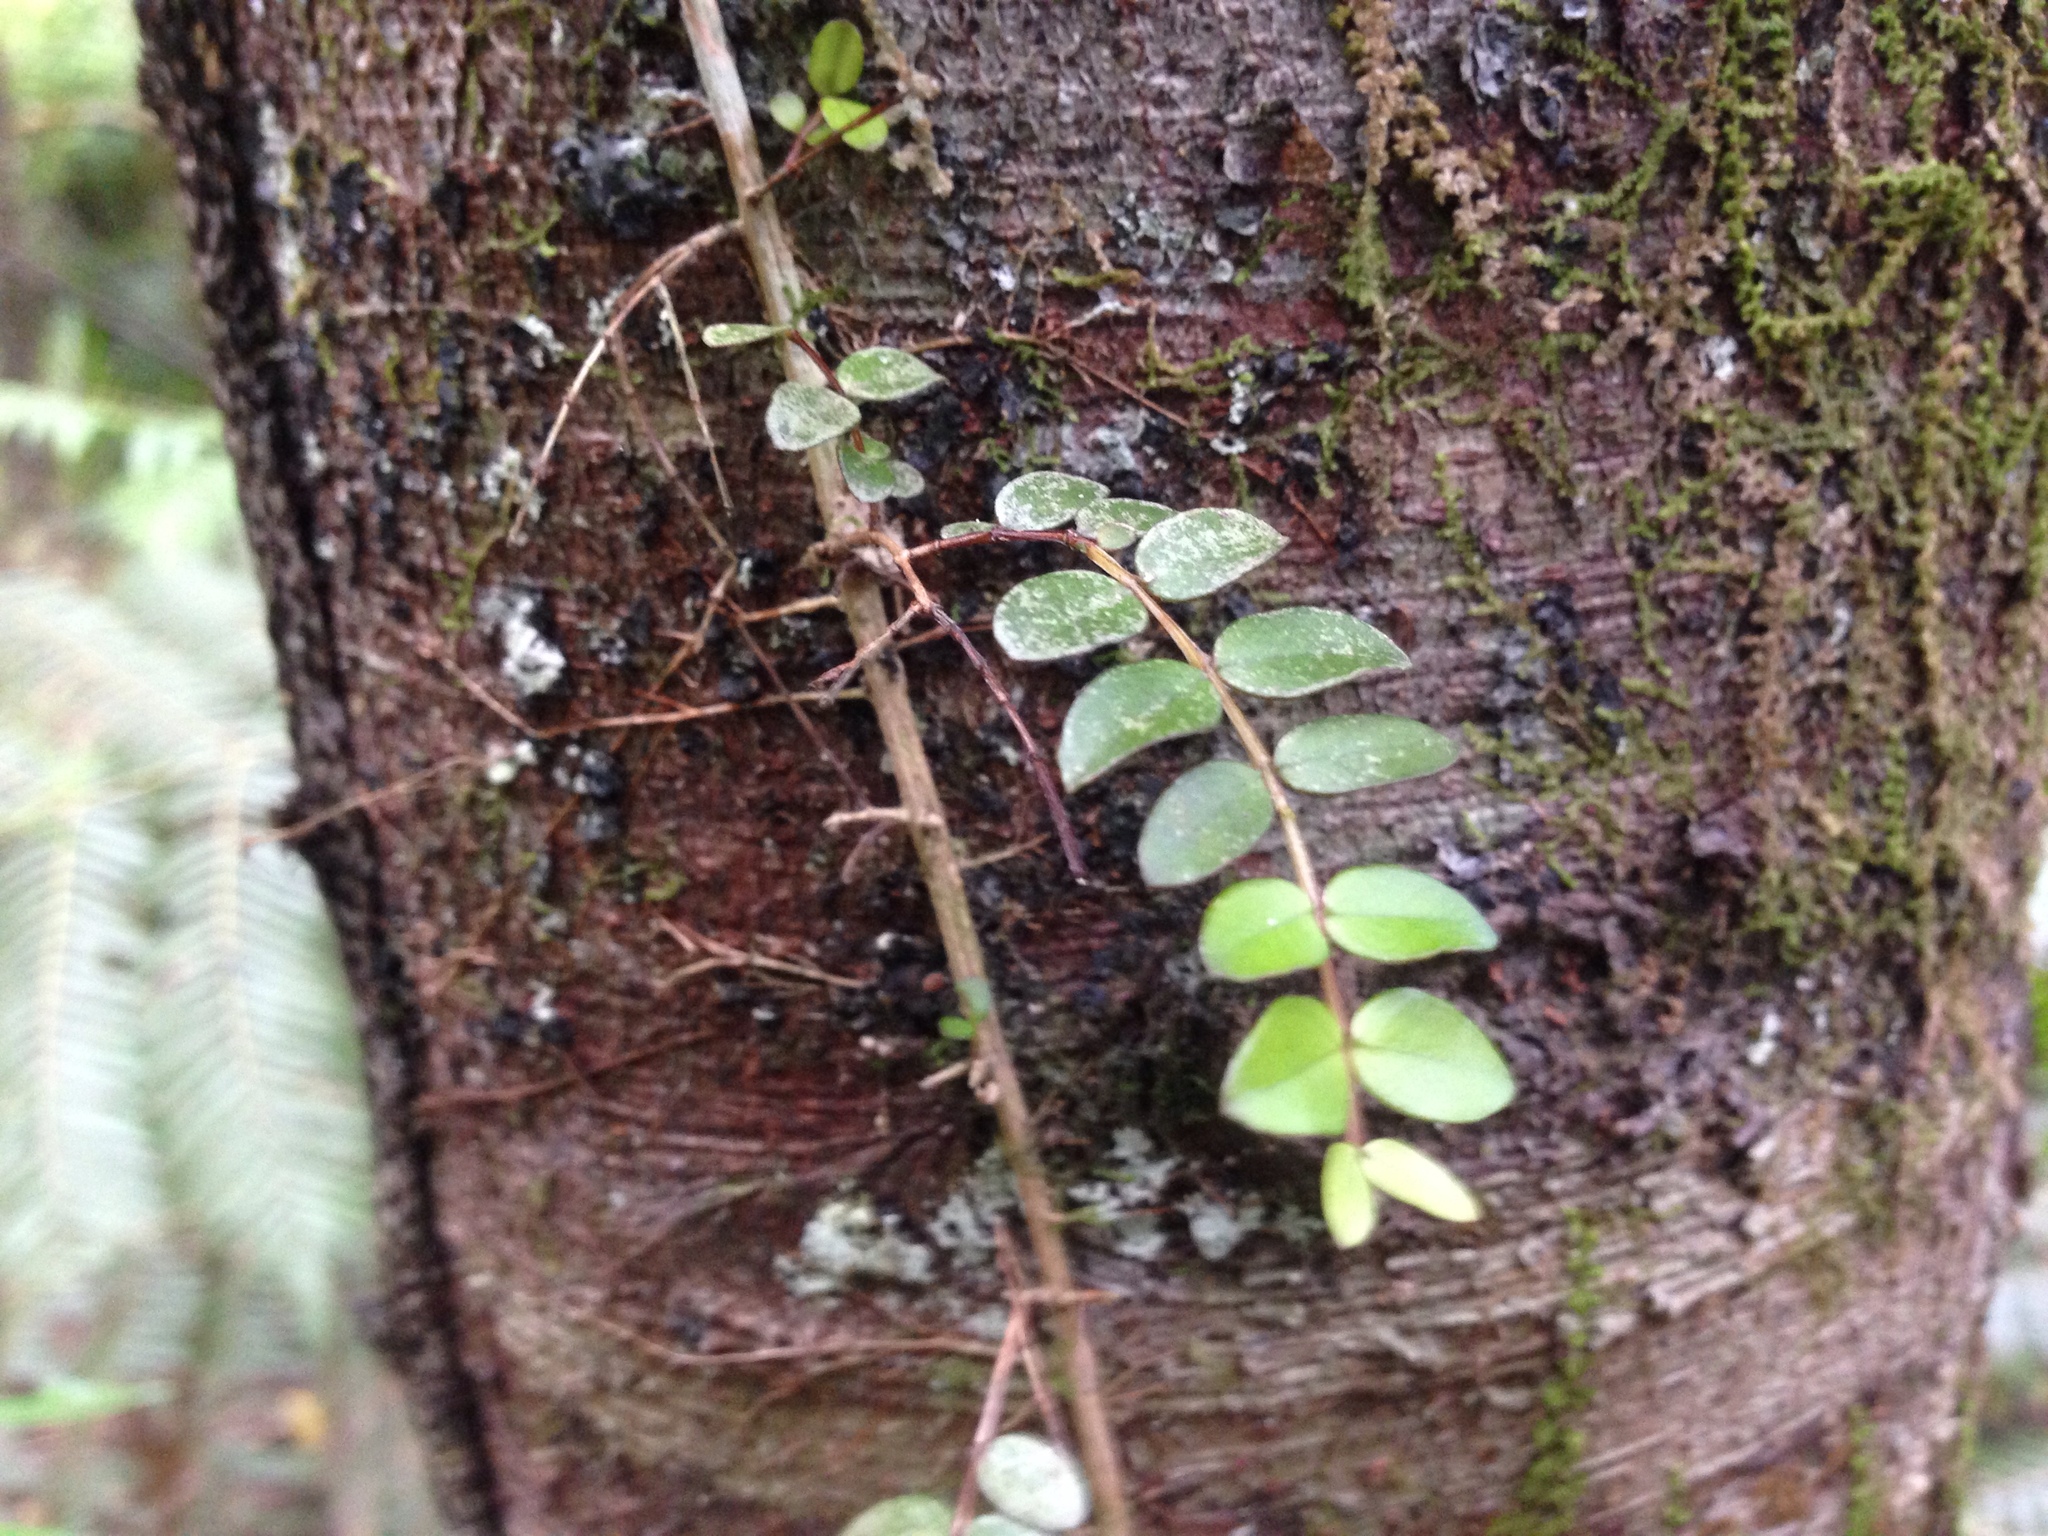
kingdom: Plantae
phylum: Tracheophyta
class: Magnoliopsida
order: Myrtales
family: Myrtaceae
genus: Metrosideros
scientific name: Metrosideros diffusa
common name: Small ratavine
